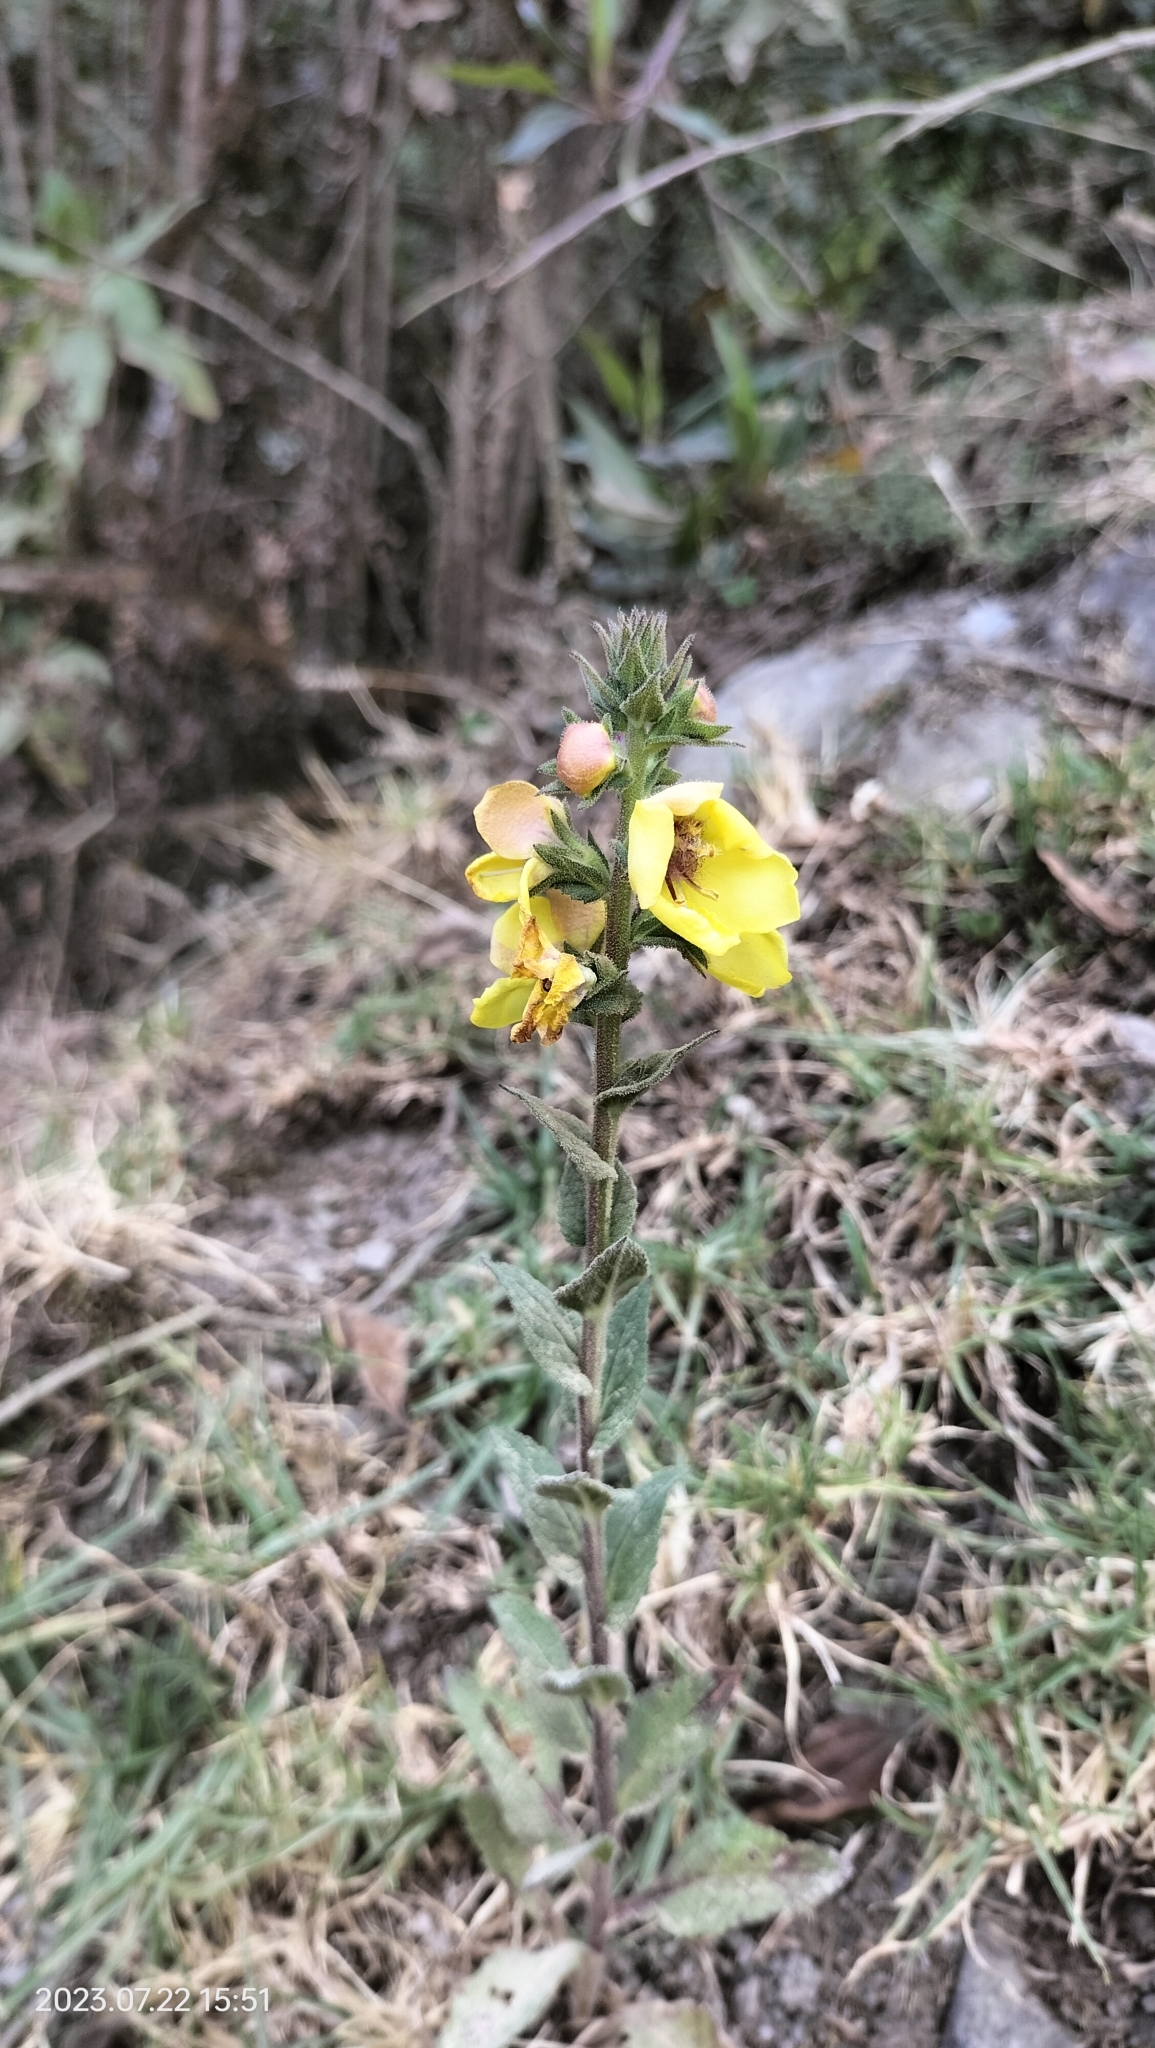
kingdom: Plantae
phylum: Tracheophyta
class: Magnoliopsida
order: Lamiales
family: Scrophulariaceae
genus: Verbascum
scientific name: Verbascum virgatum
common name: Twiggy mullein
